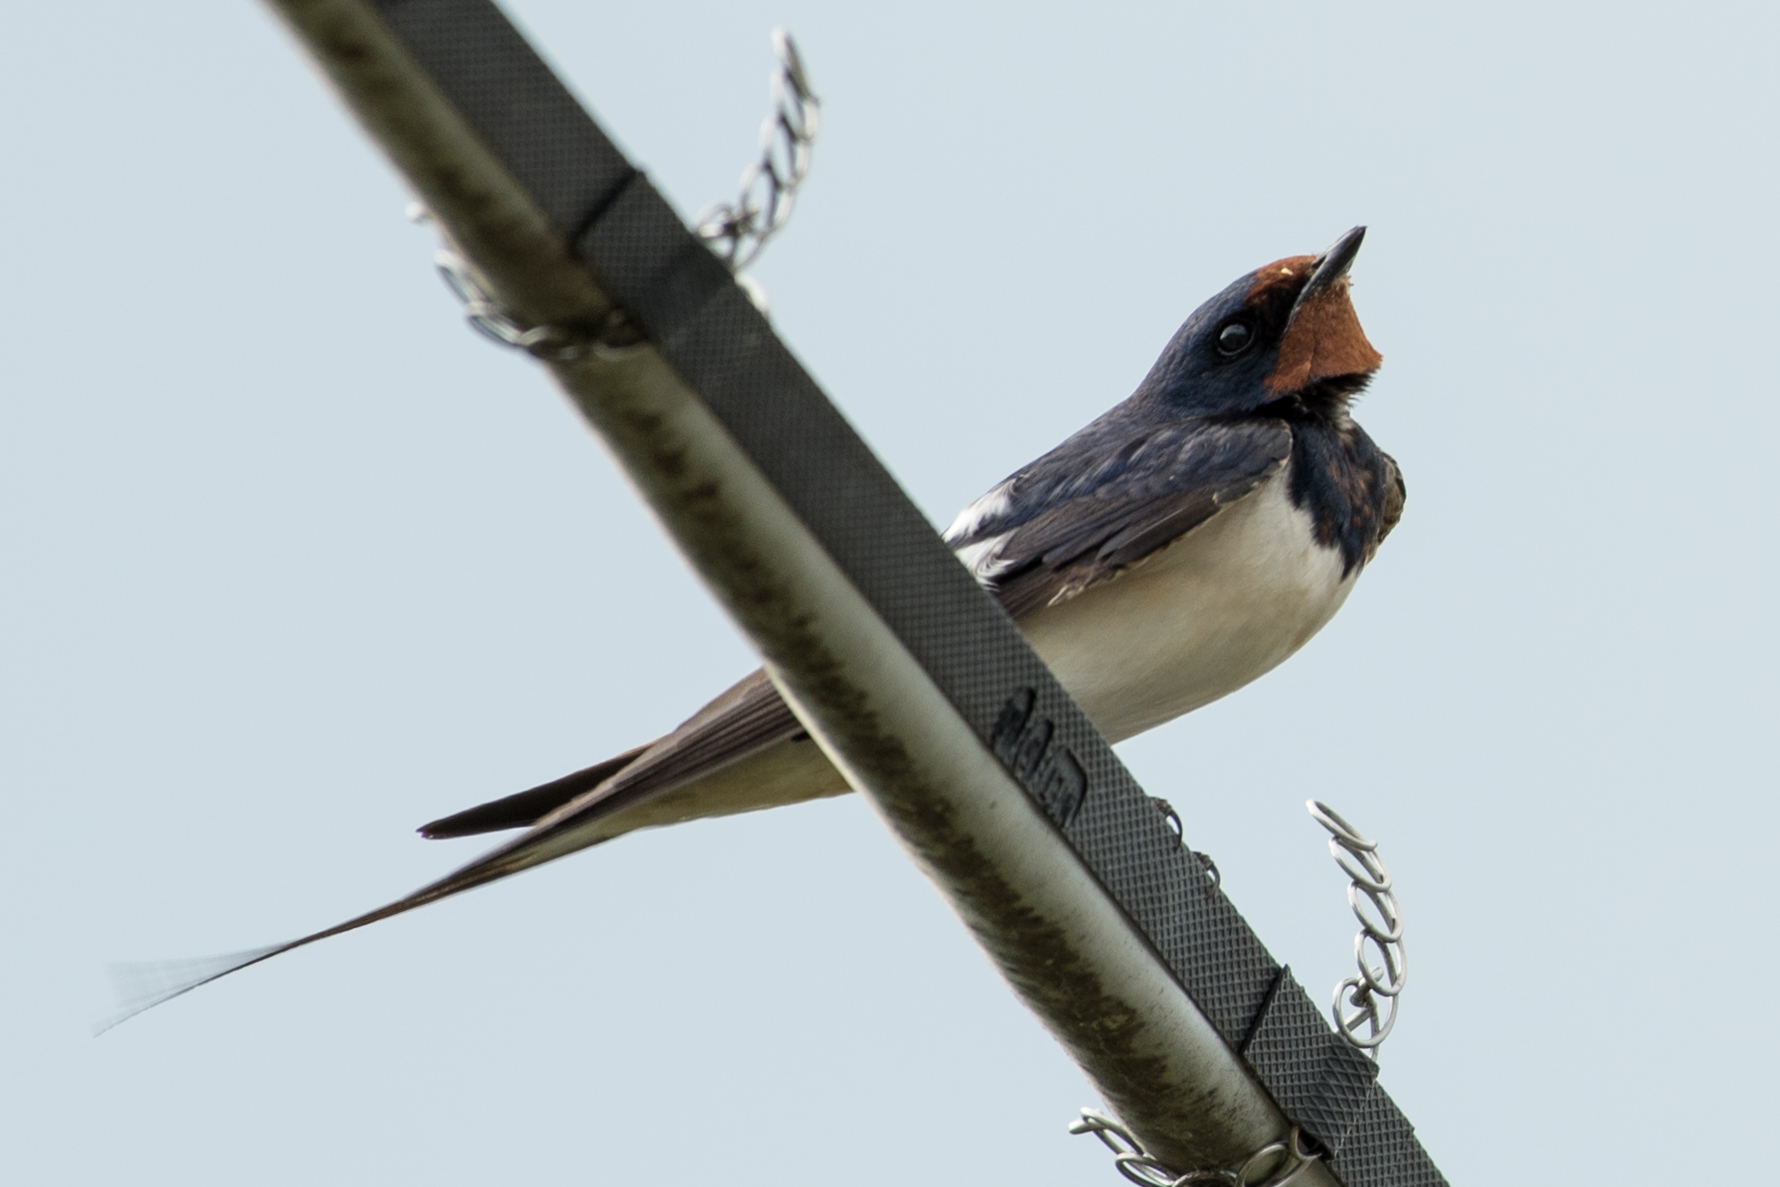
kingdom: Animalia
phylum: Chordata
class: Aves
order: Passeriformes
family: Hirundinidae
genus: Hirundo
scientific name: Hirundo rustica
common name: Barn swallow
